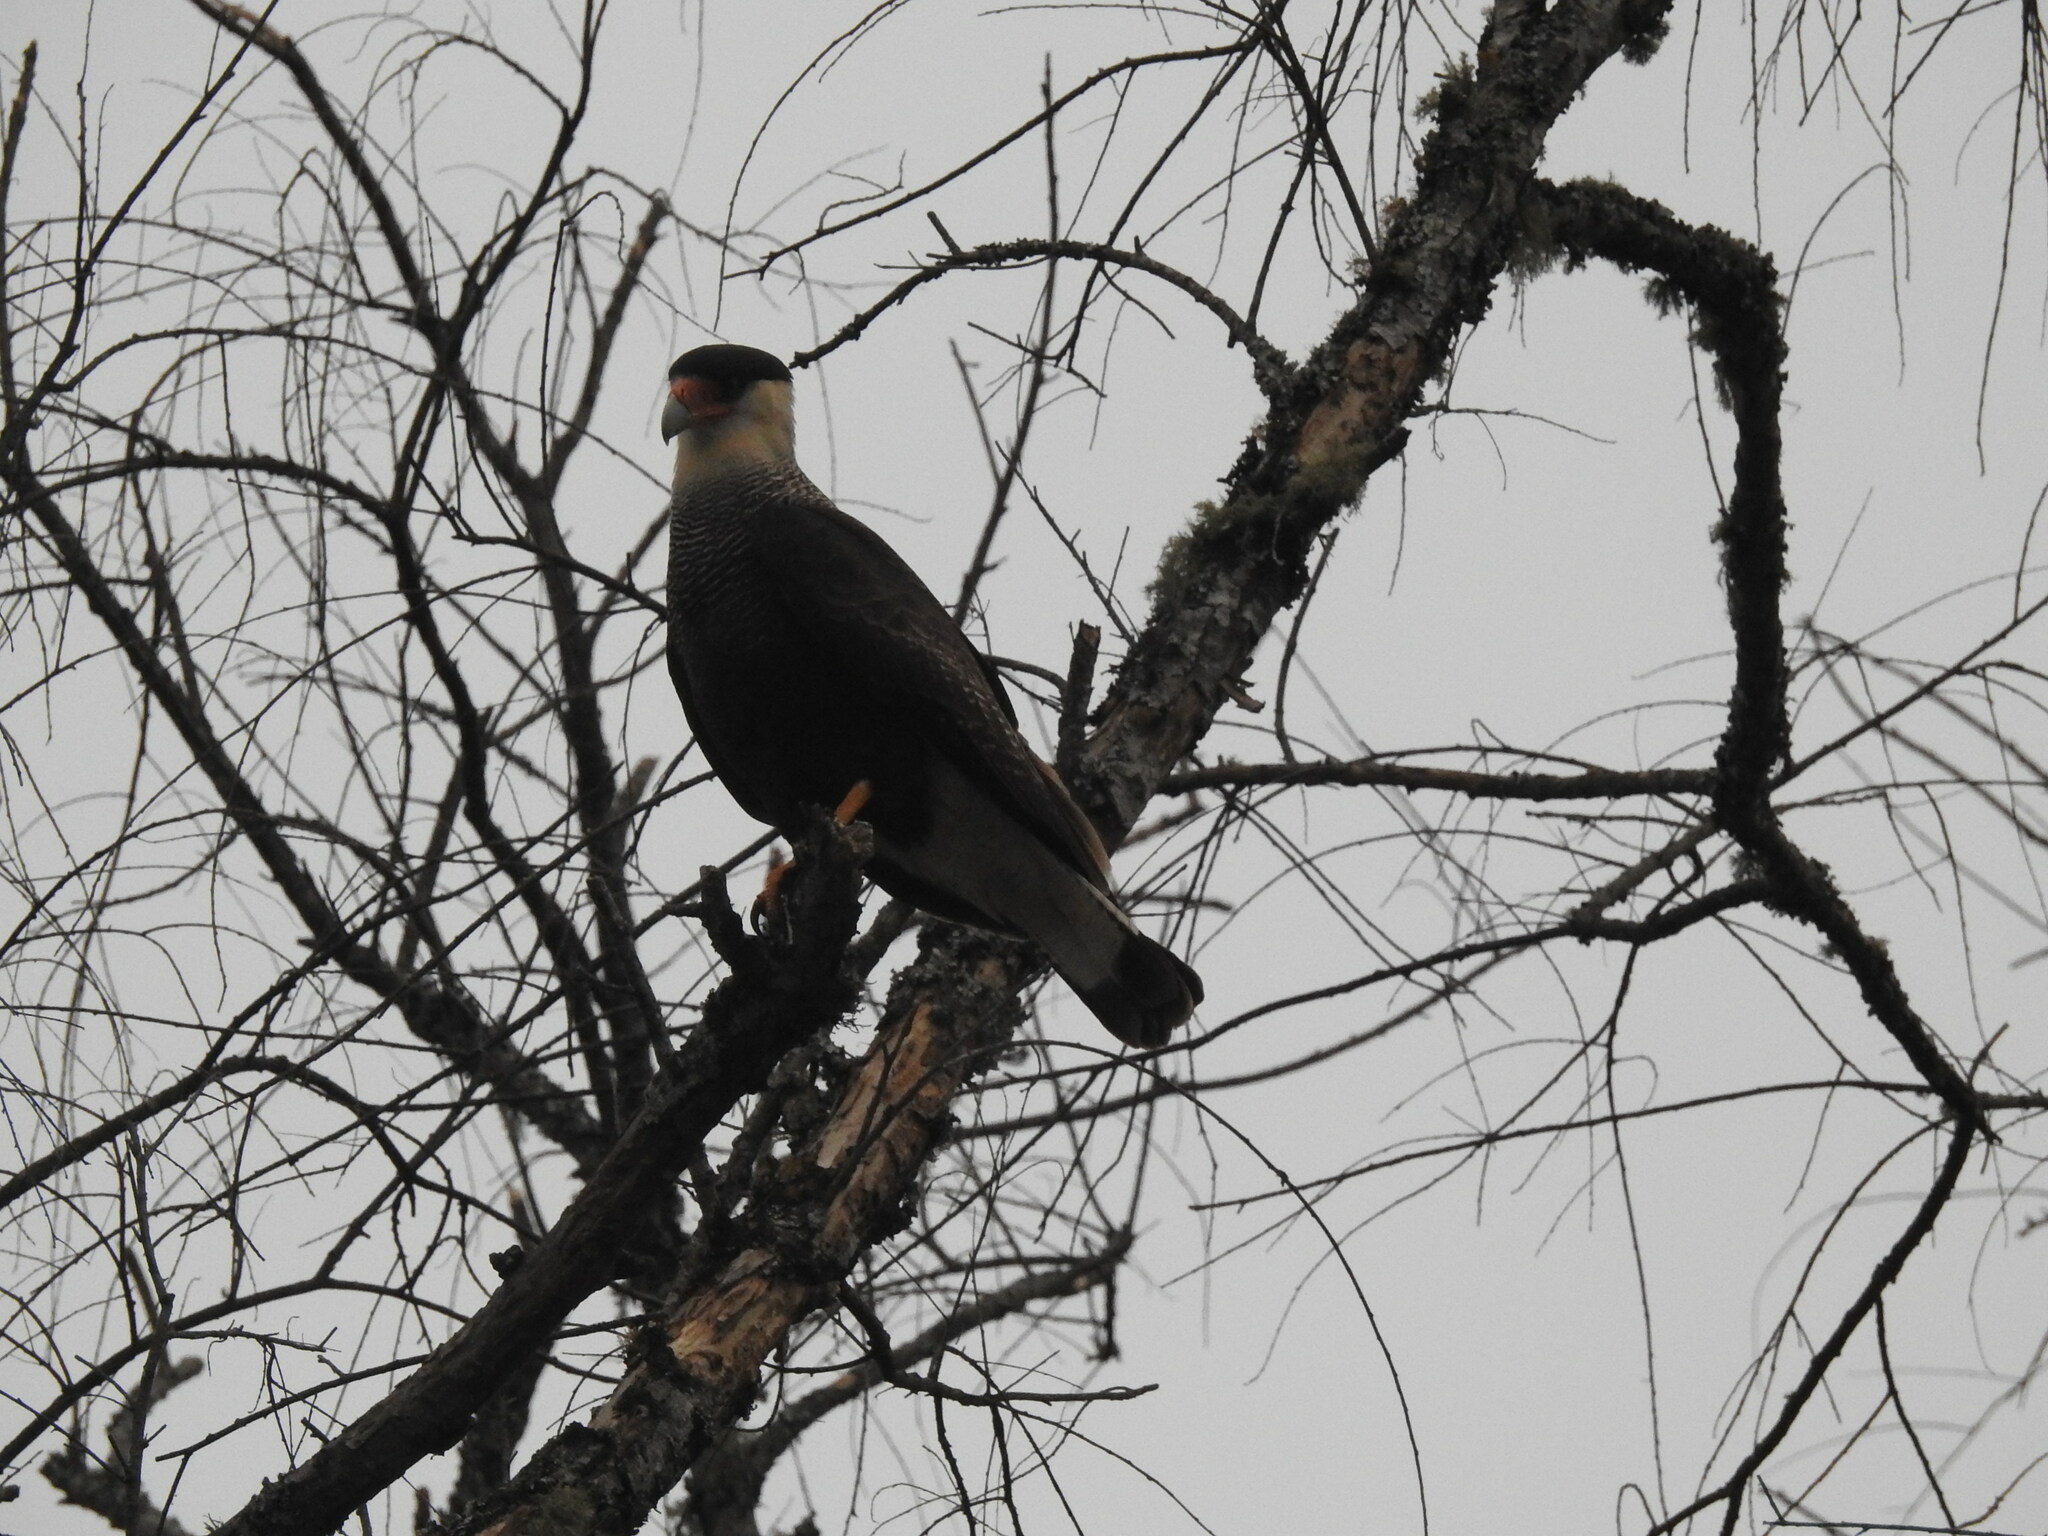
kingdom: Animalia
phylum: Chordata
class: Aves
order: Falconiformes
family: Falconidae
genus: Caracara
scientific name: Caracara plancus
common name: Southern caracara
